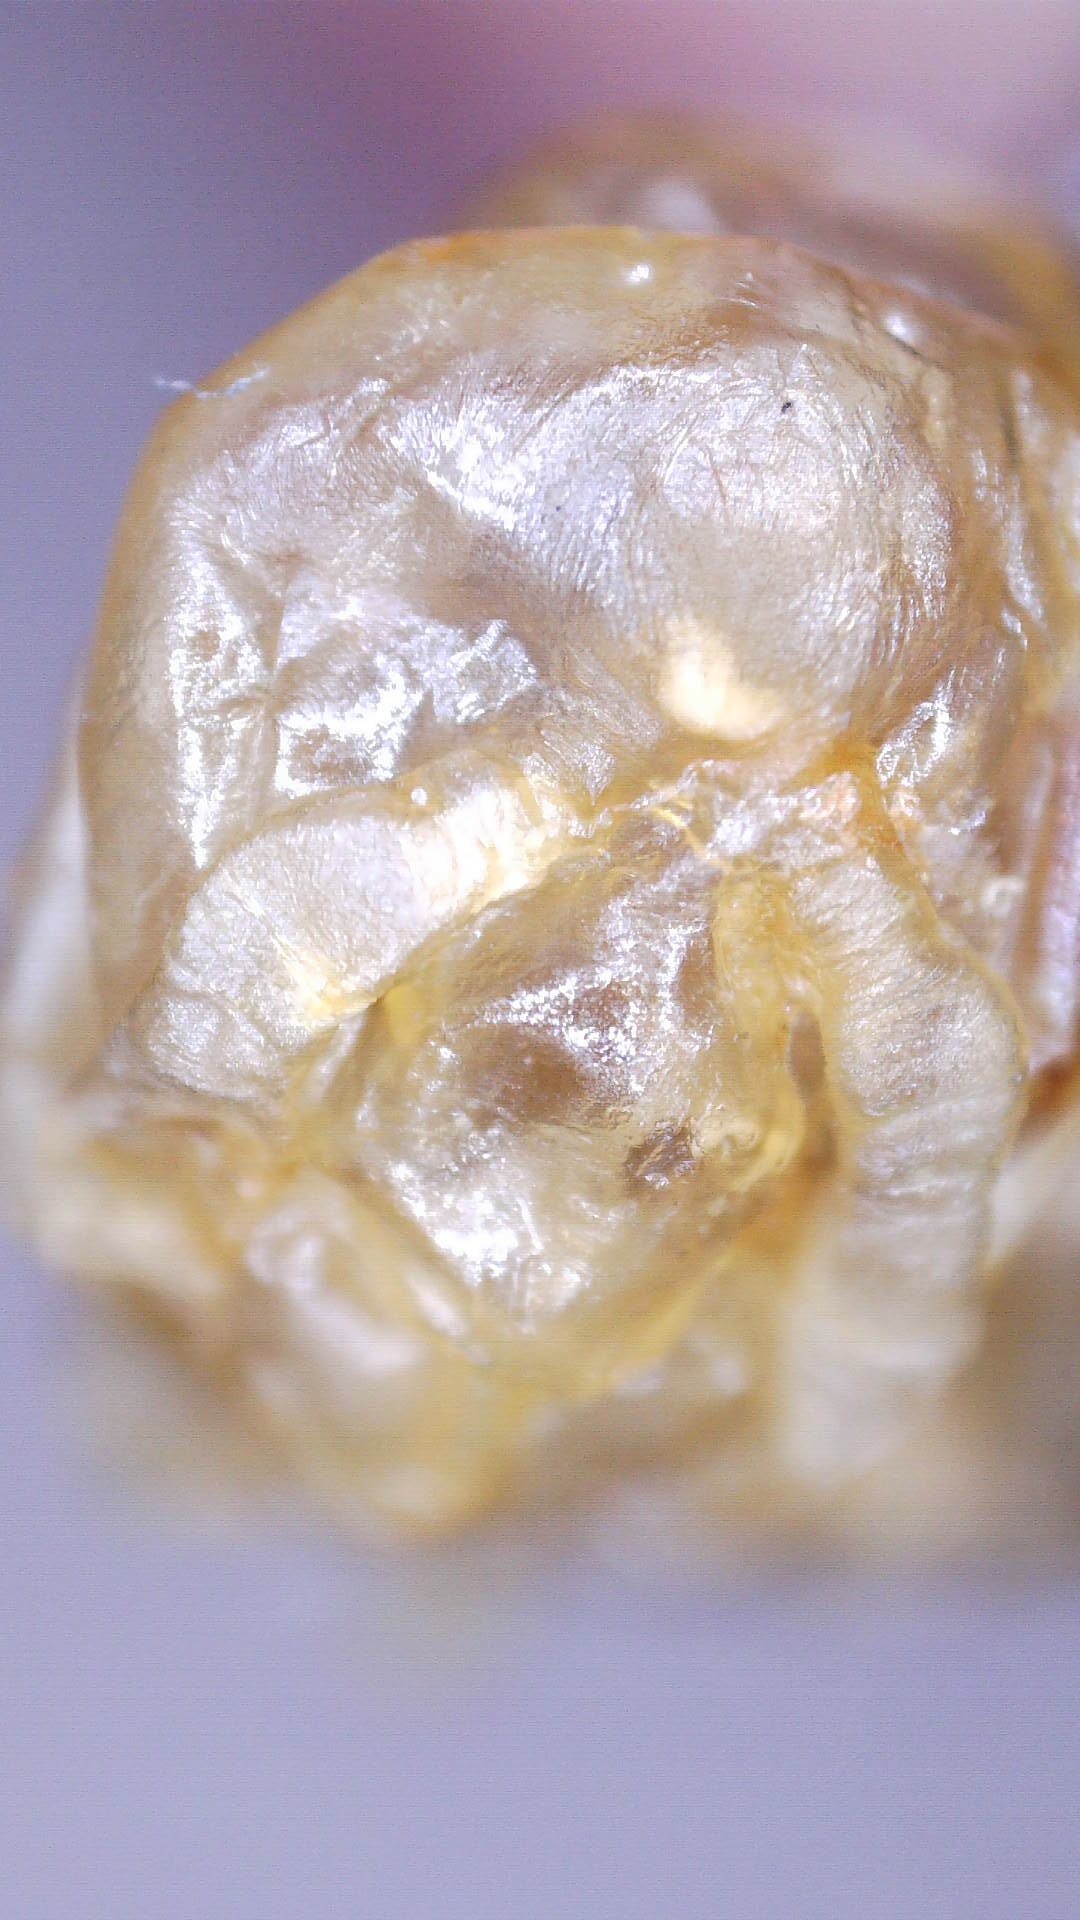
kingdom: Animalia
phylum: Arthropoda
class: Insecta
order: Hymenoptera
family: Vespidae
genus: Dolichovespula
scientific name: Dolichovespula maculata
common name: Bald-faced hornet
